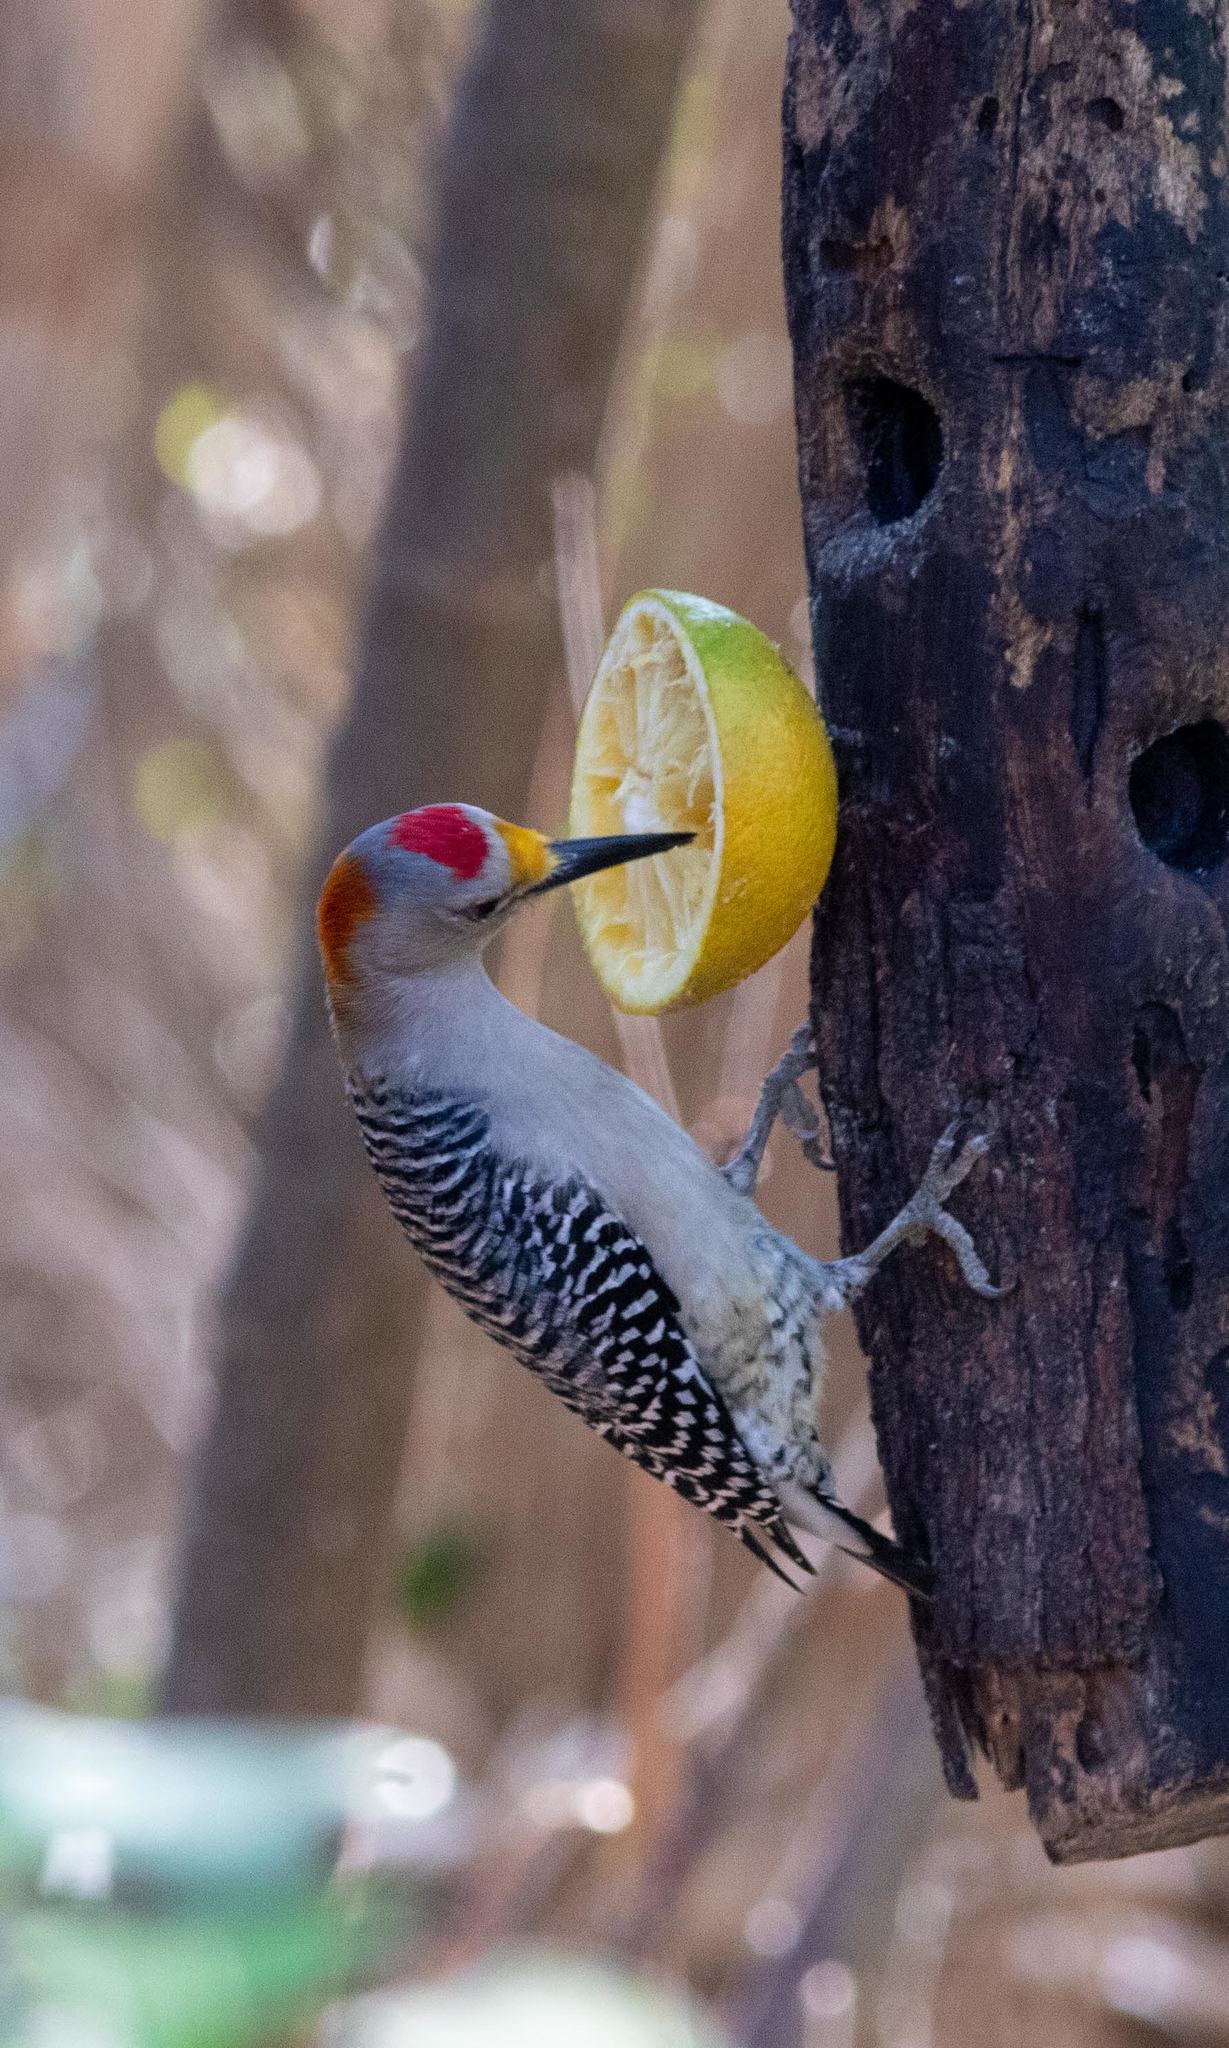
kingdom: Animalia
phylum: Chordata
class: Aves
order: Piciformes
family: Picidae
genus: Melanerpes
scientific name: Melanerpes aurifrons
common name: Golden-fronted woodpecker
